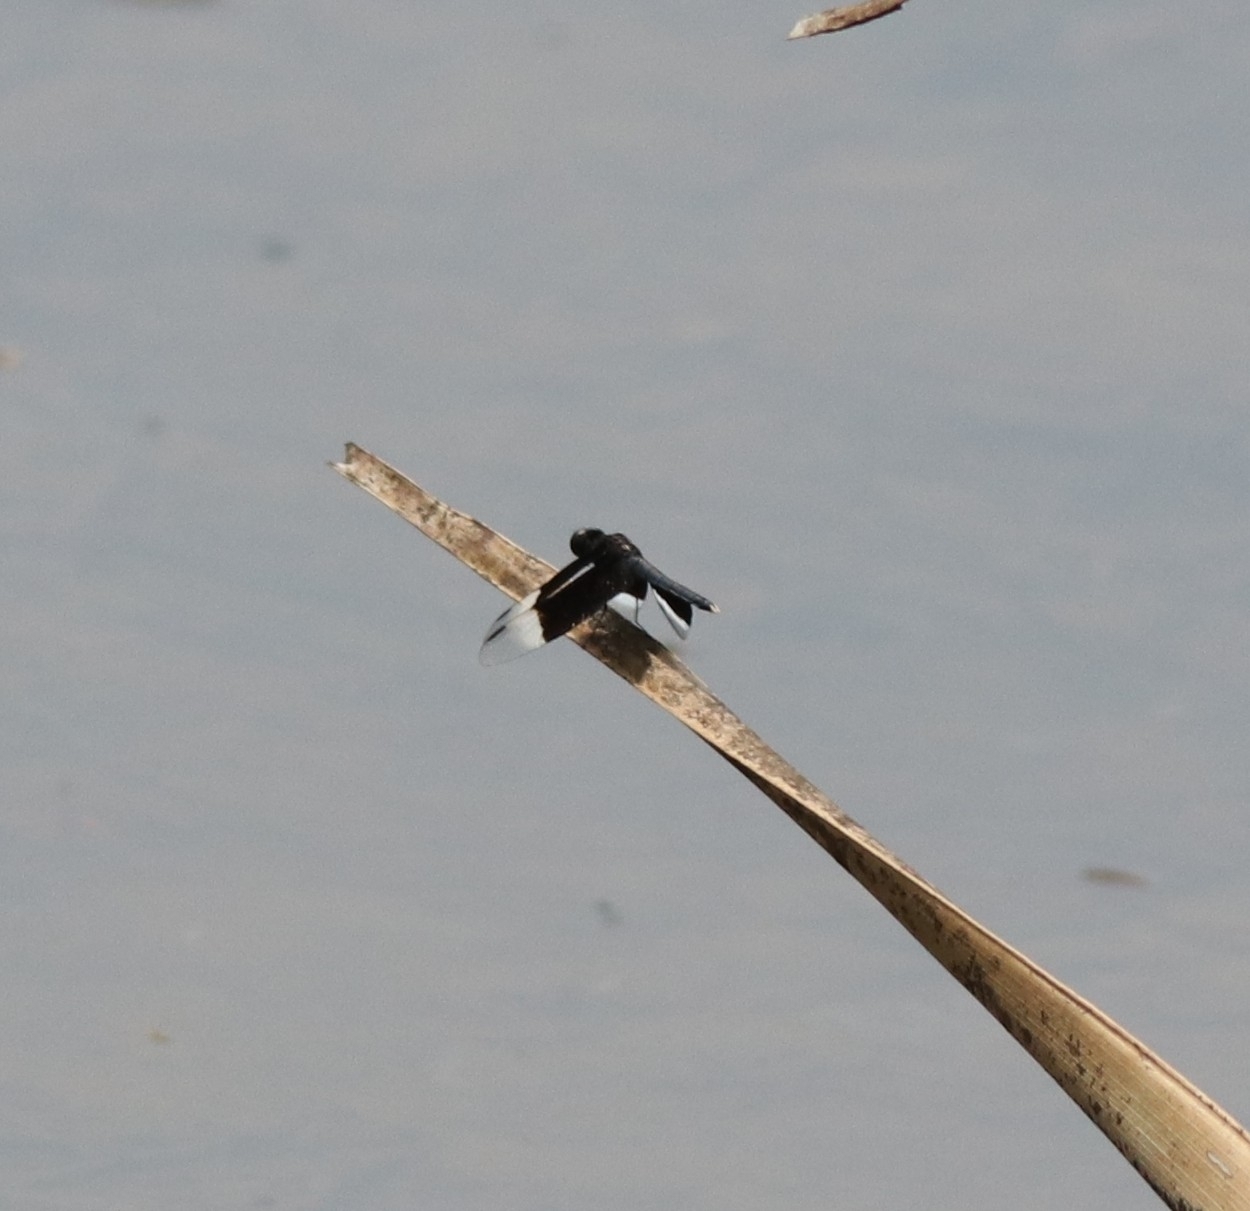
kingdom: Animalia
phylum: Arthropoda
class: Insecta
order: Odonata
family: Libellulidae
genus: Neurothemis
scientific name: Neurothemis tullia
